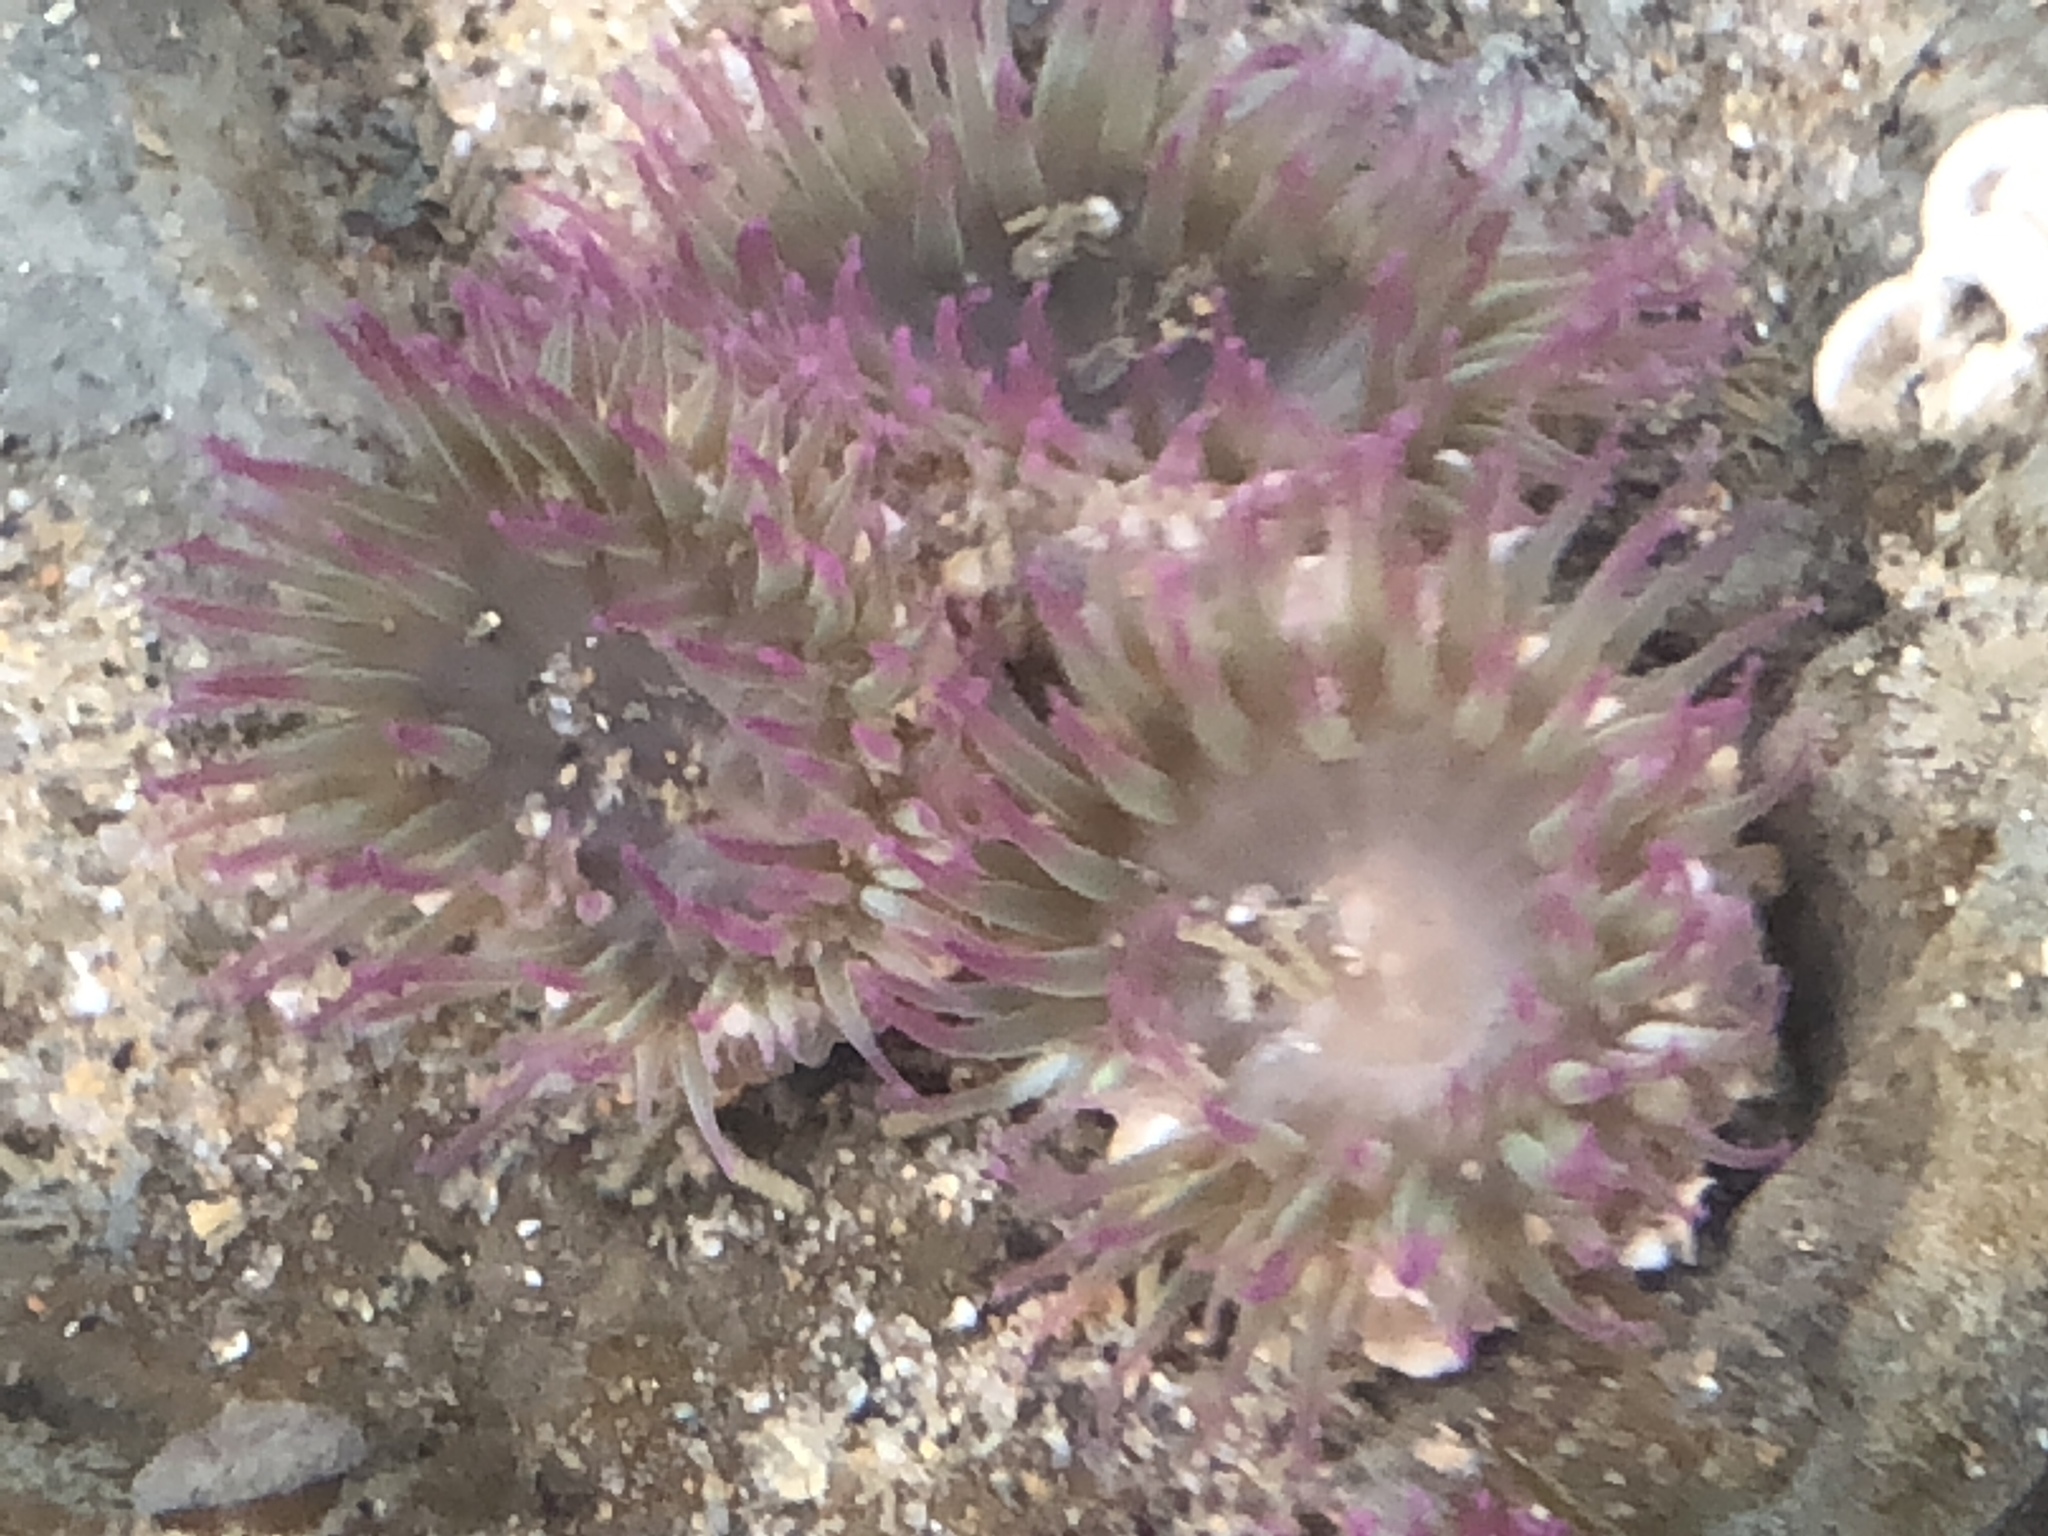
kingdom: Animalia
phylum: Cnidaria
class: Anthozoa
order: Actiniaria
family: Actiniidae
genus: Anthopleura
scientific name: Anthopleura elegantissima
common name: Clonal anemone
